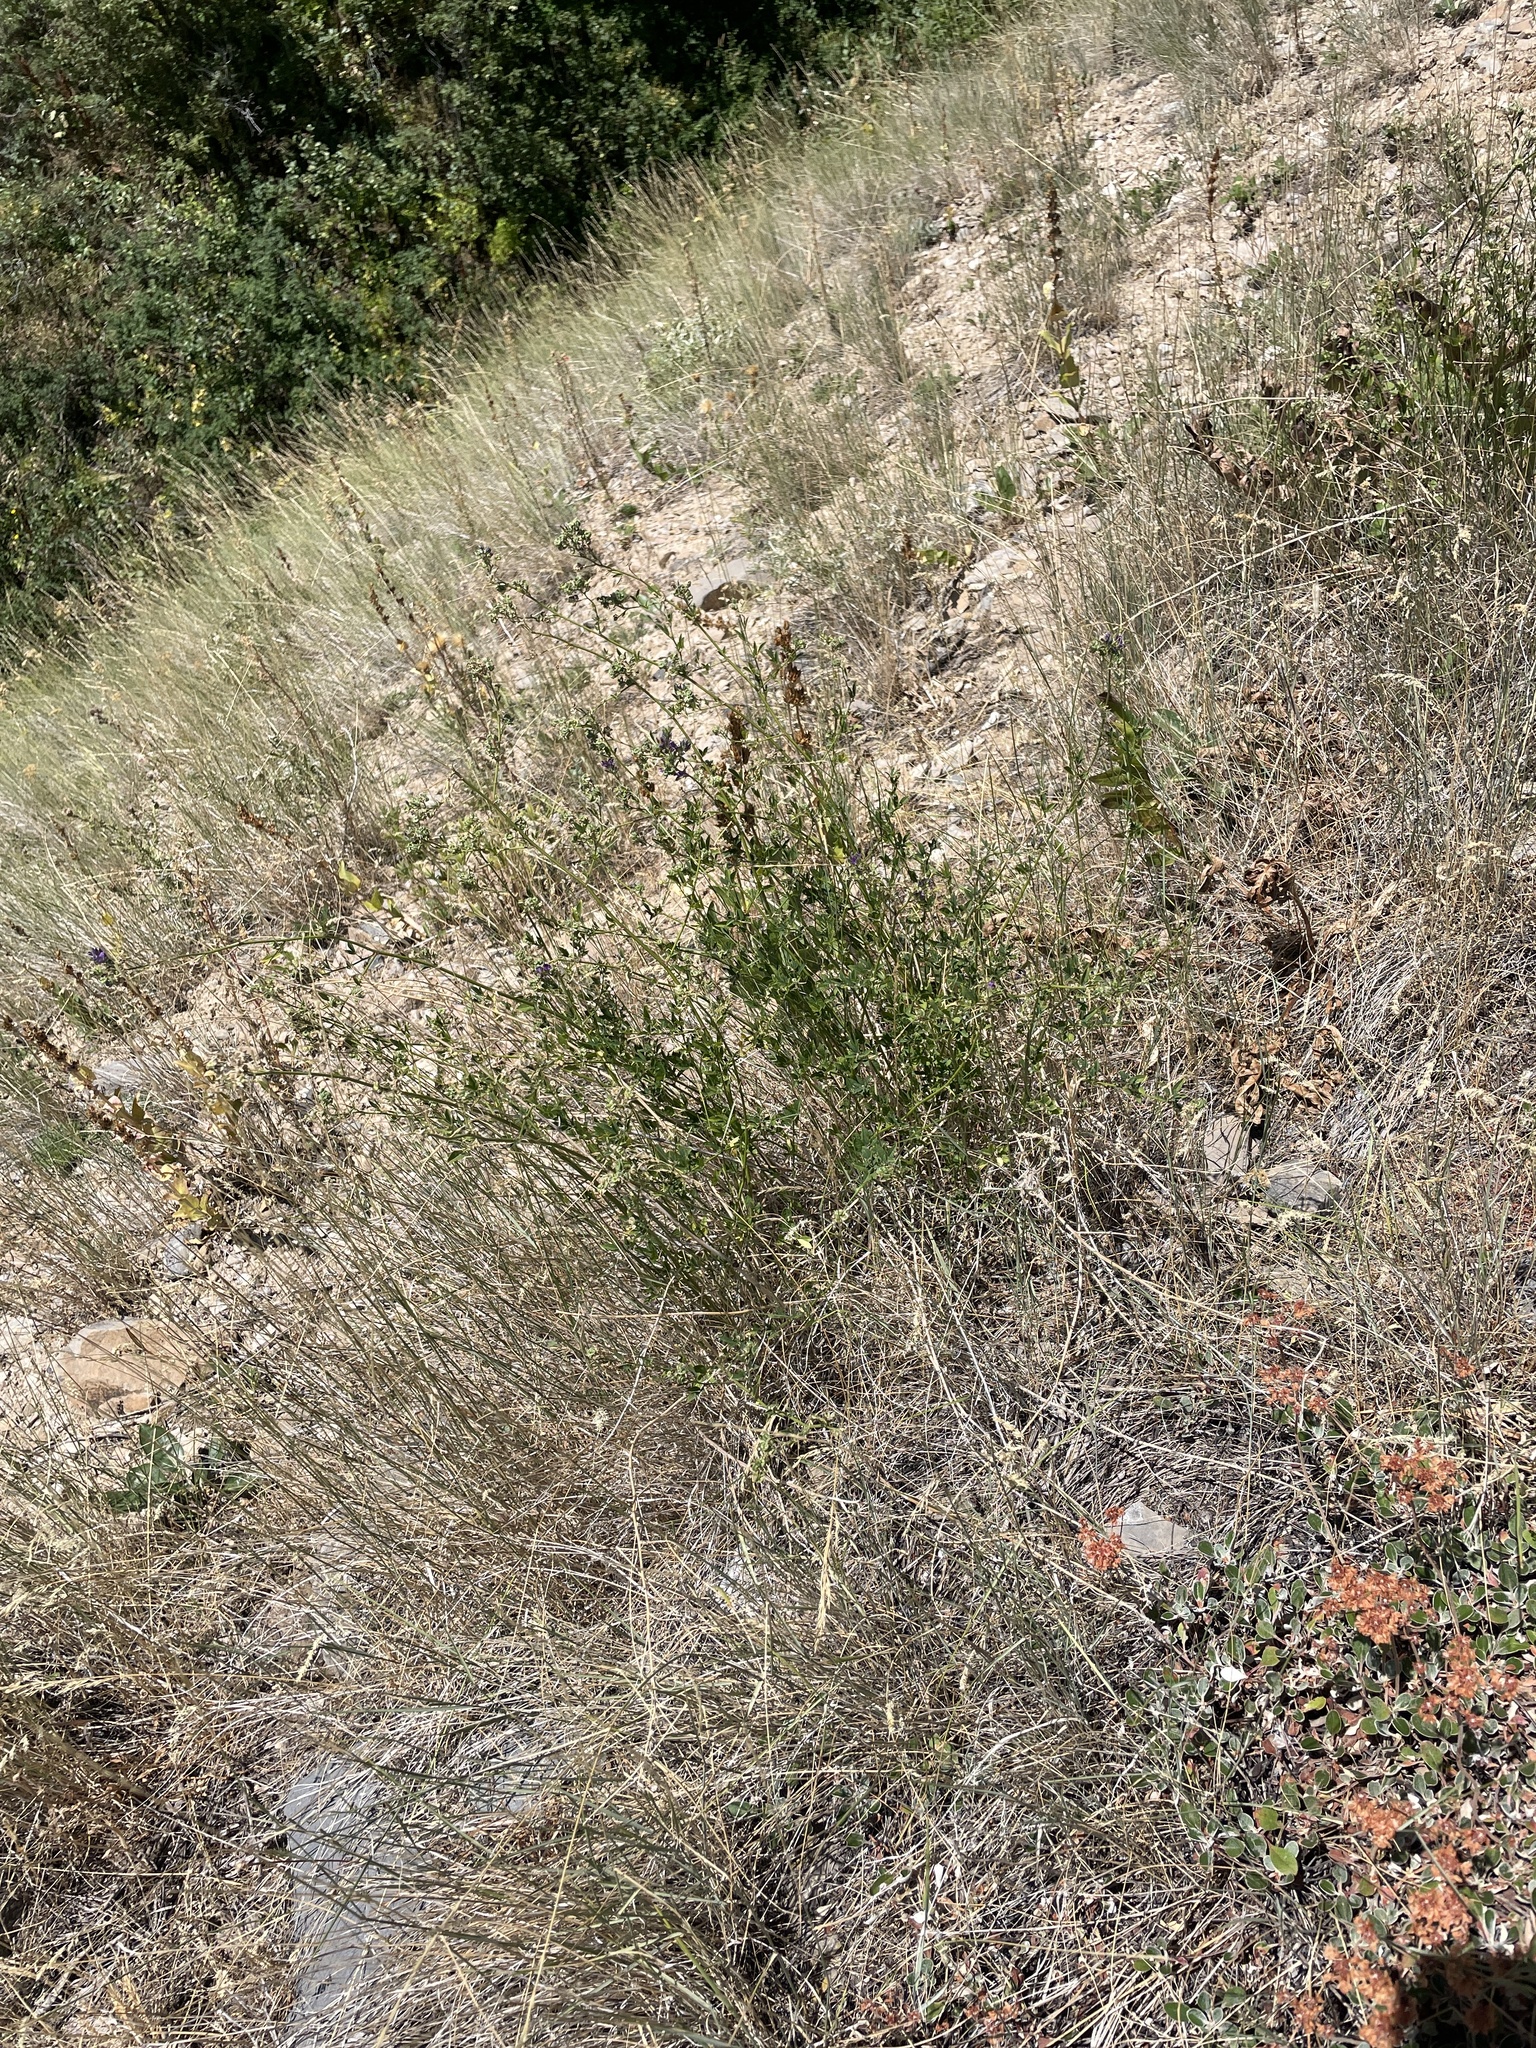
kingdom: Plantae
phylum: Tracheophyta
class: Magnoliopsida
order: Fabales
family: Fabaceae
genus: Medicago
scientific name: Medicago sativa
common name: Alfalfa
